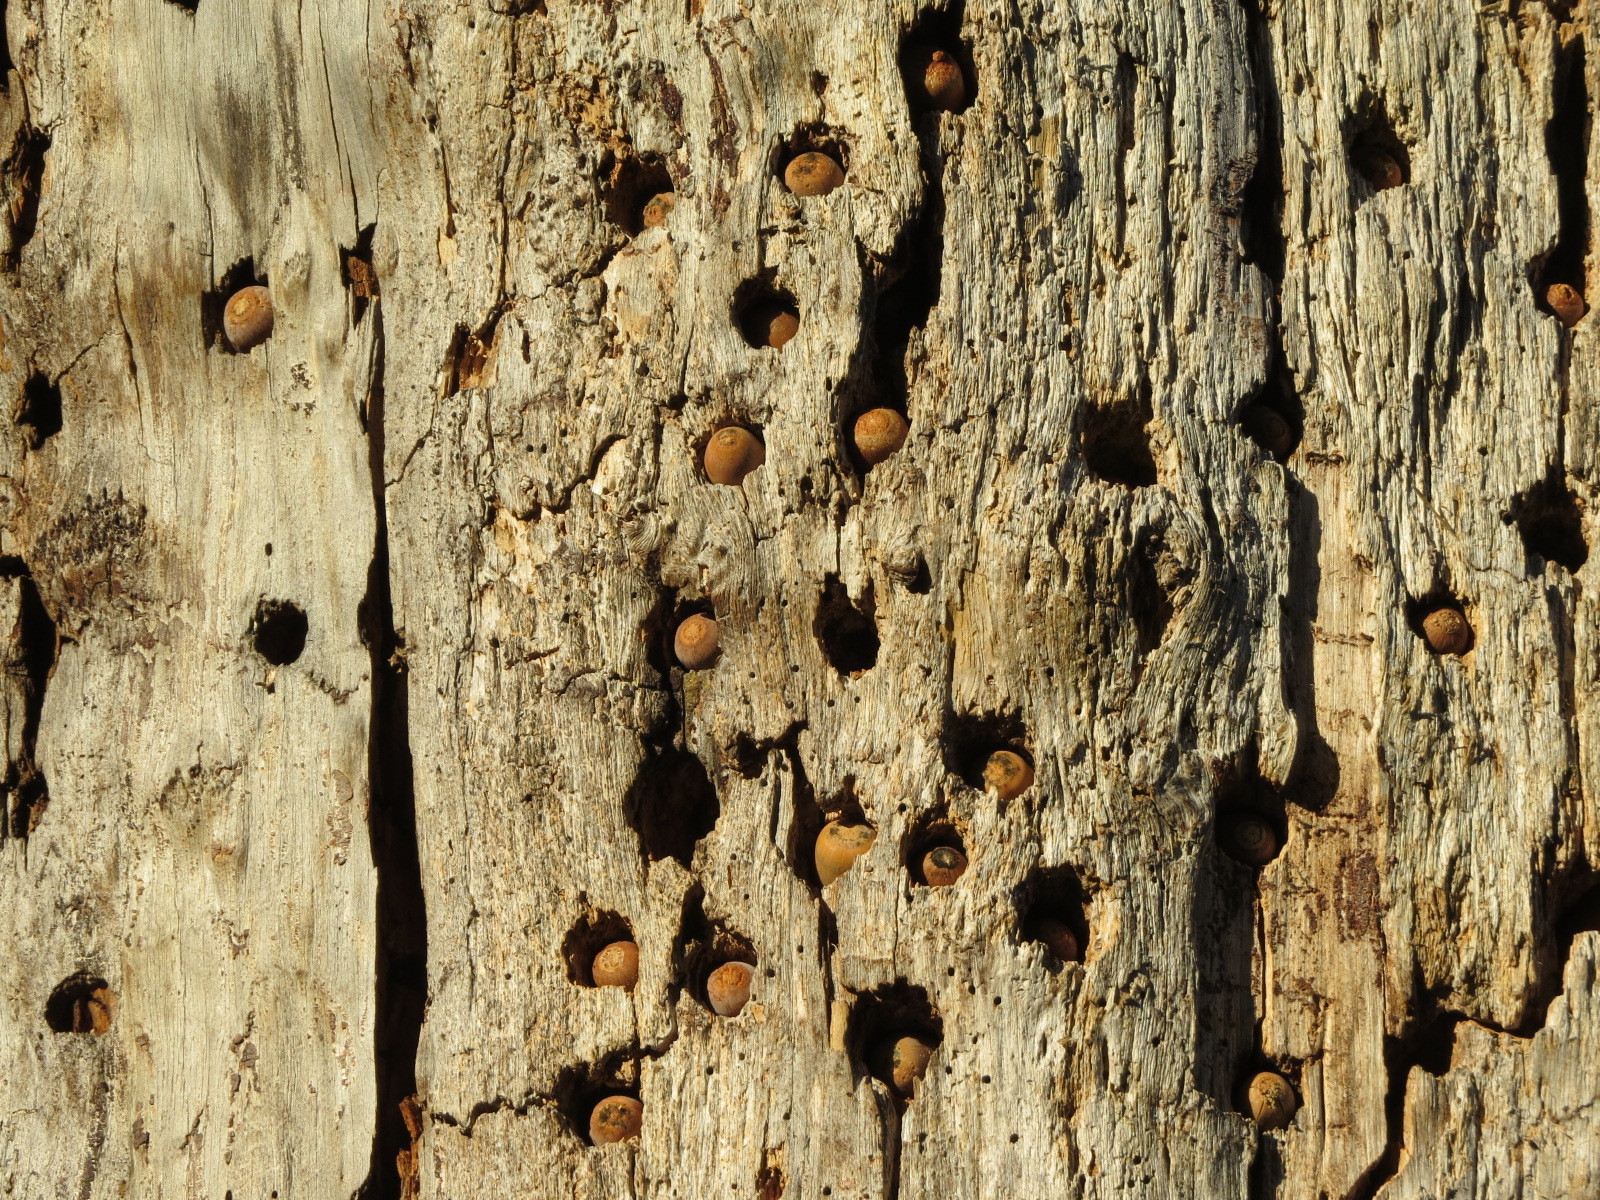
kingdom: Animalia
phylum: Chordata
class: Aves
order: Piciformes
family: Picidae
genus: Melanerpes
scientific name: Melanerpes formicivorus
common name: Acorn woodpecker
